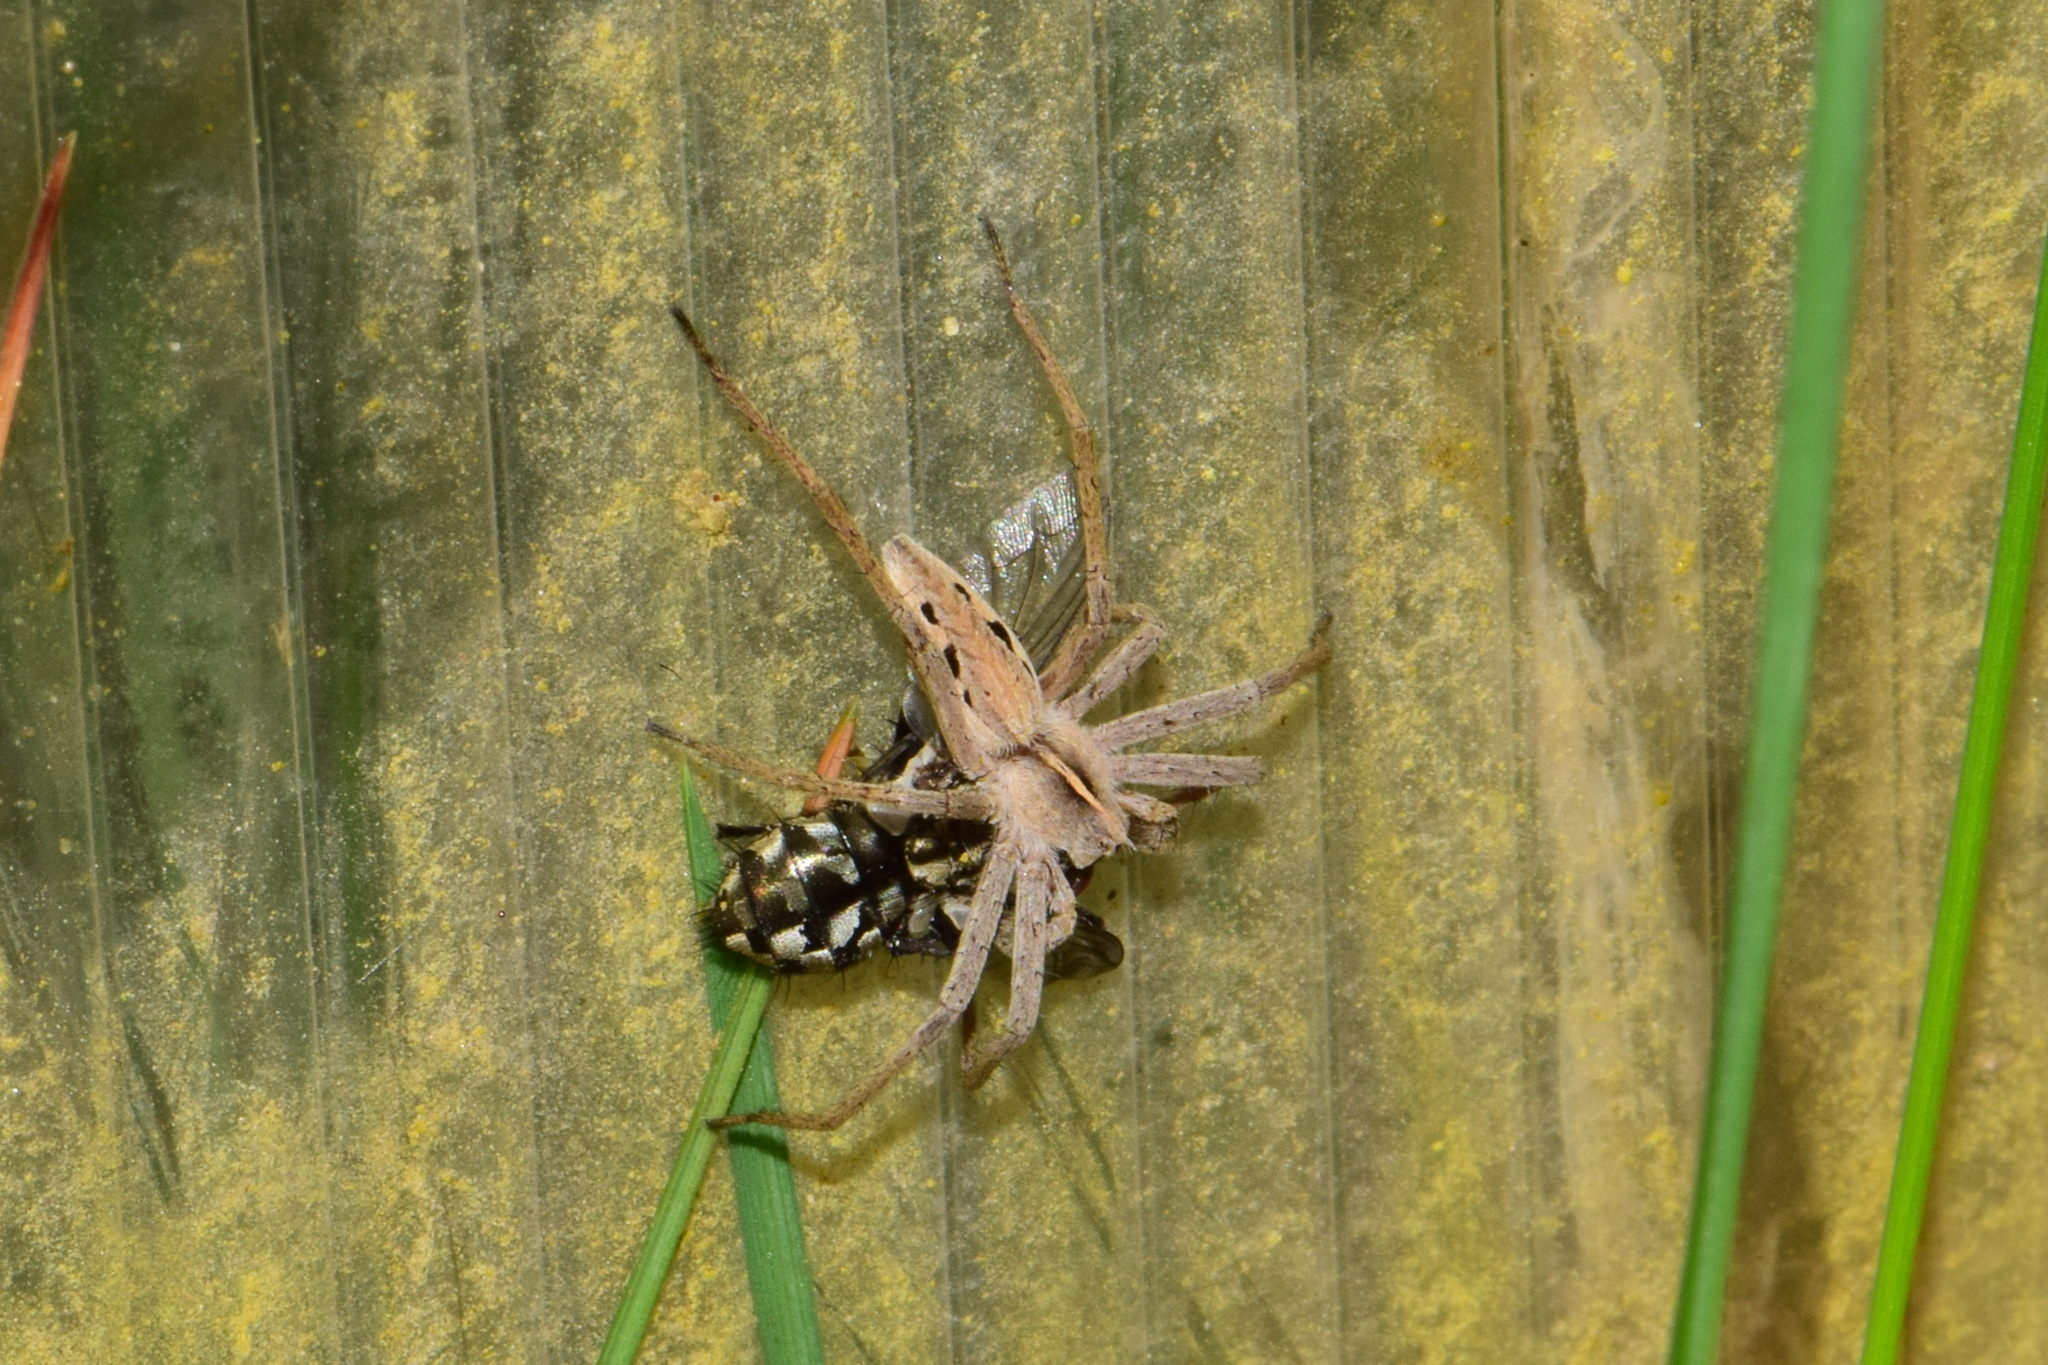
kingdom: Animalia
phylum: Arthropoda
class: Arachnida
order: Araneae
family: Pisauridae
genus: Pisaura
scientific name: Pisaura mirabilis
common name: Tent spider
